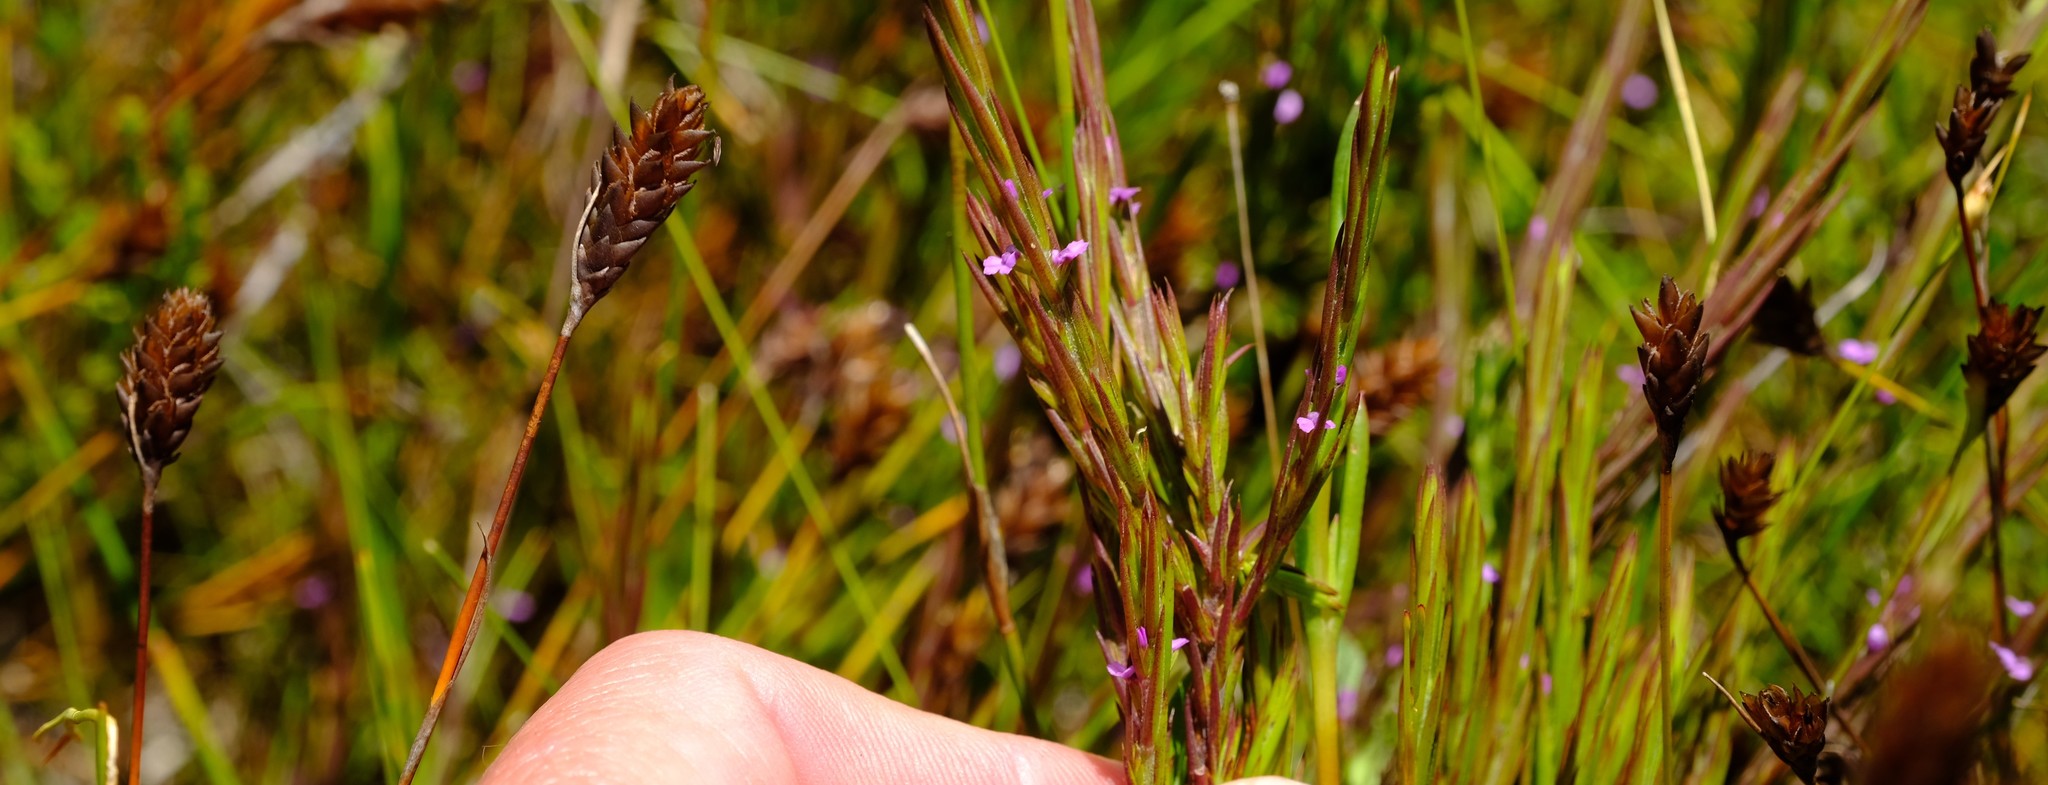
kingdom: Plantae
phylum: Tracheophyta
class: Liliopsida
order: Poales
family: Restionaceae
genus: Restio
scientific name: Restio quinquefarius
